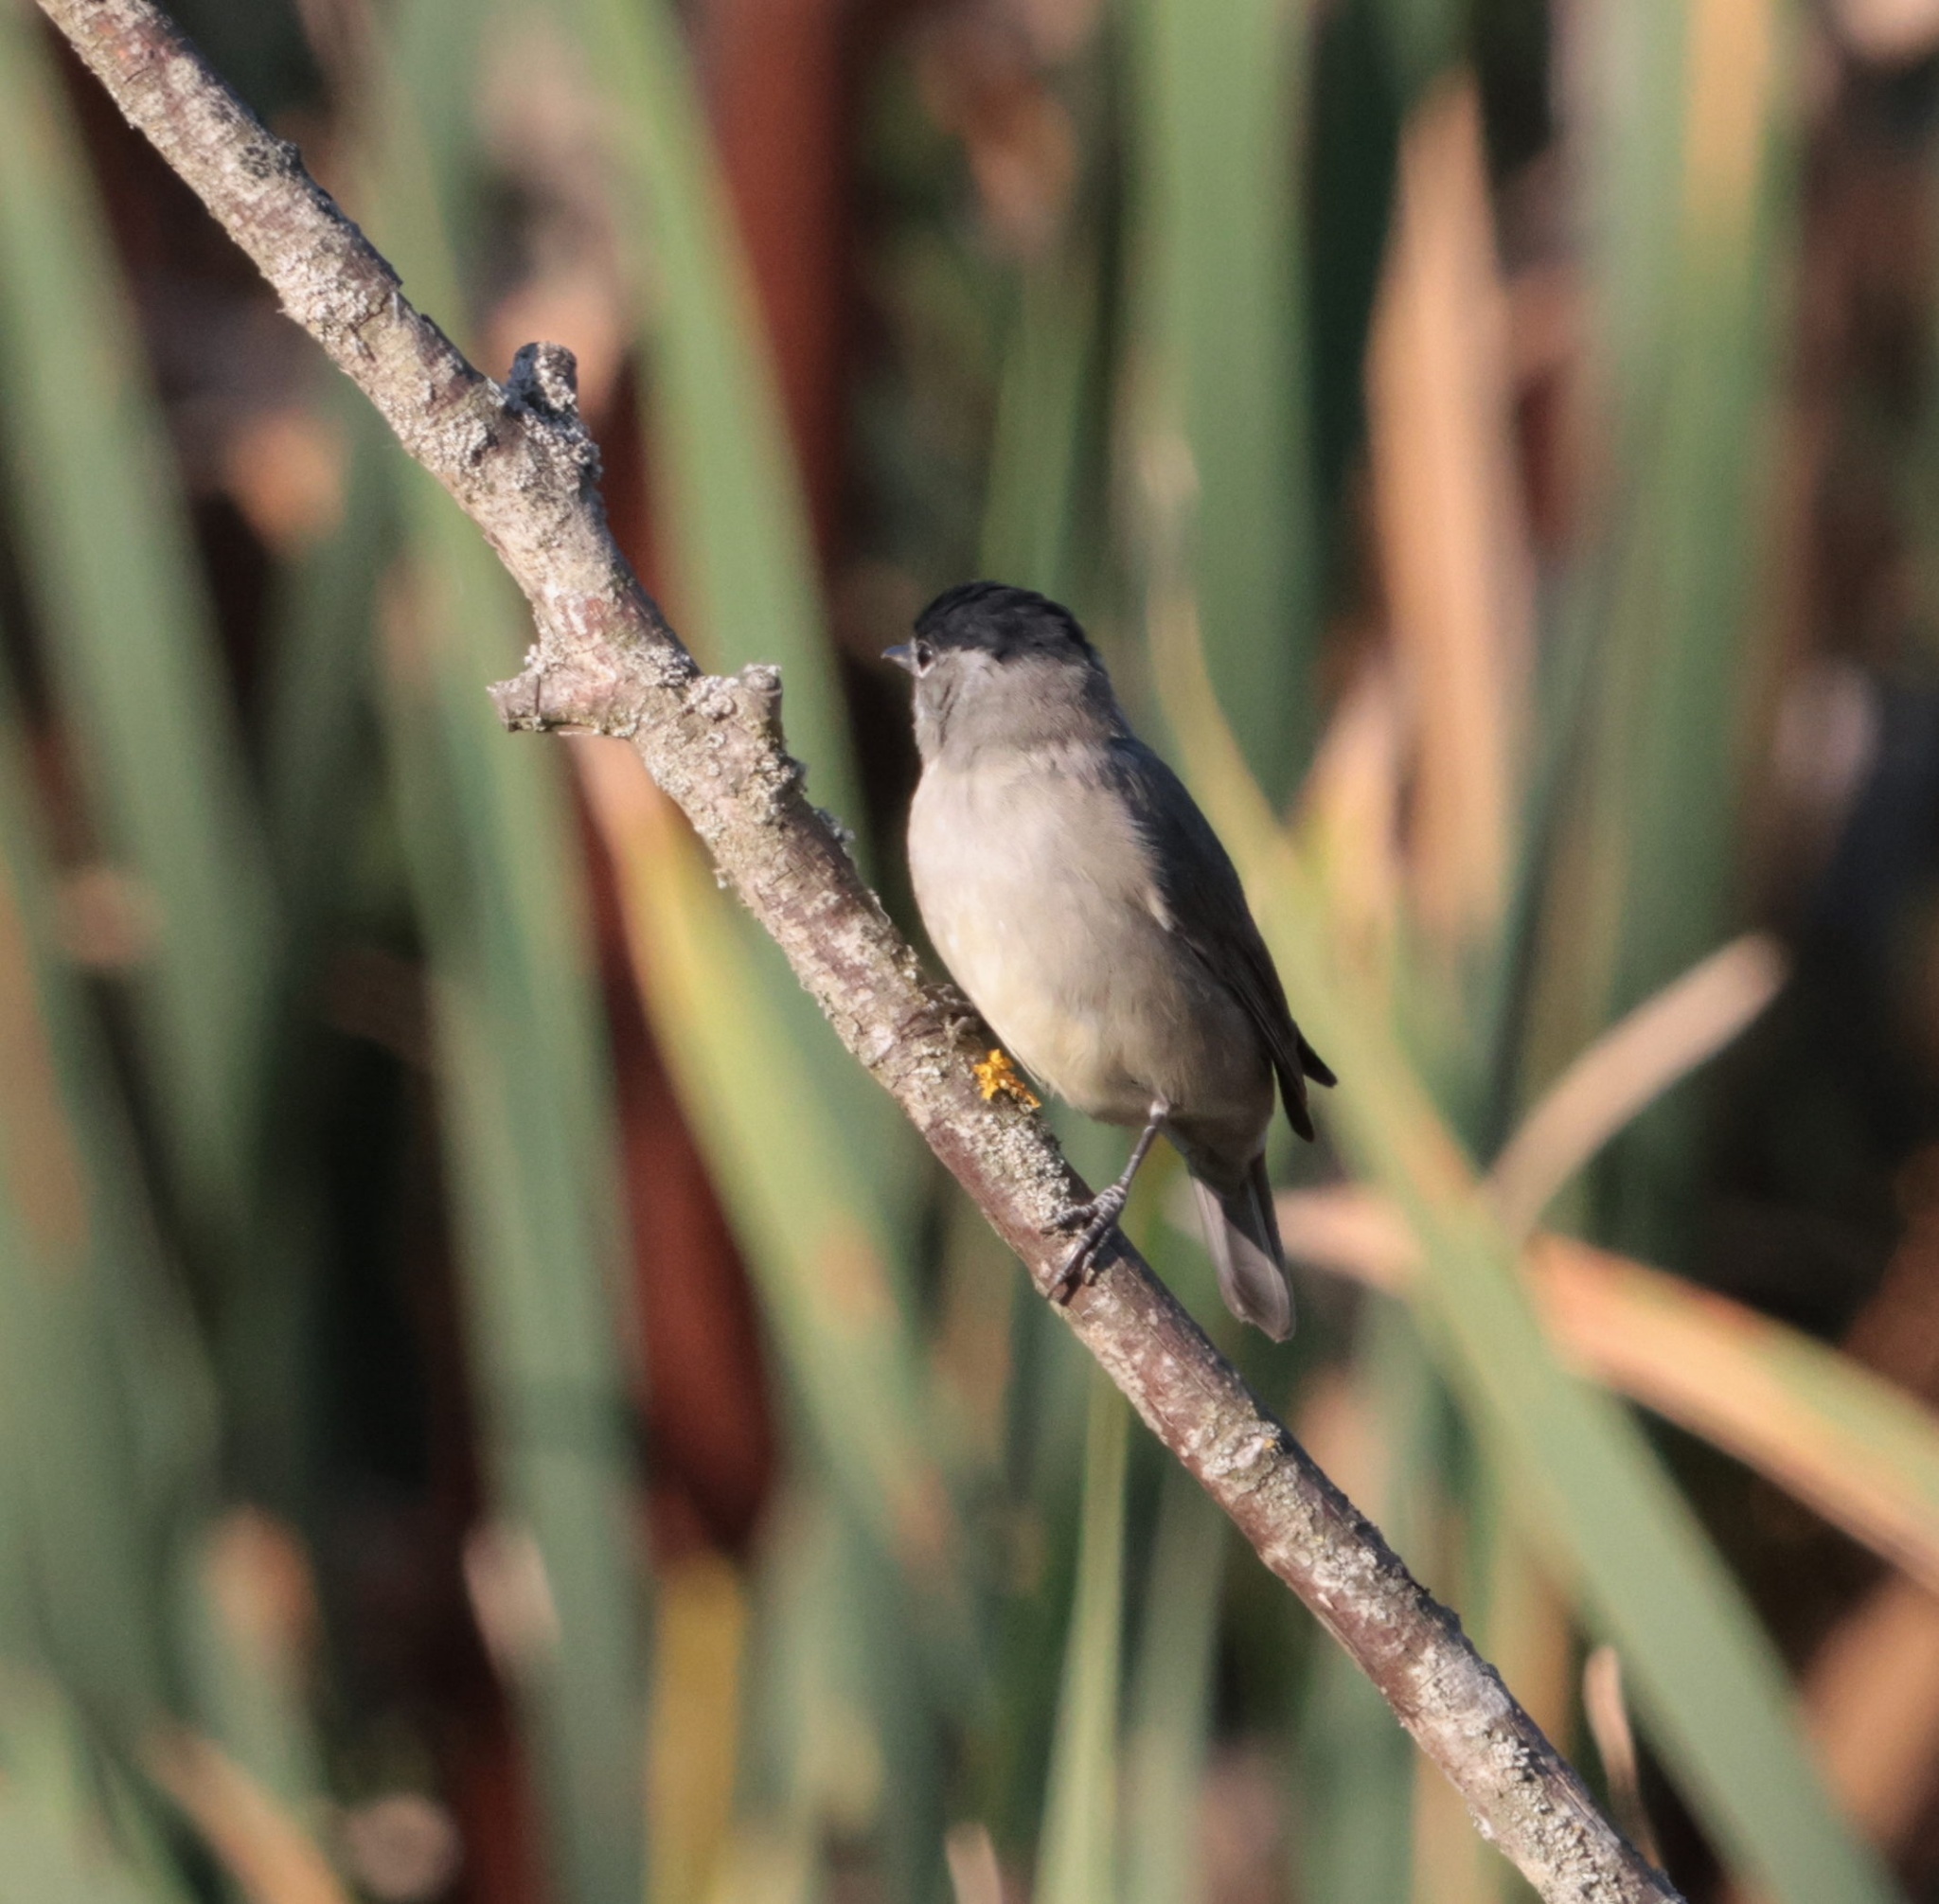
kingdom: Animalia
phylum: Chordata
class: Aves
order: Passeriformes
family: Sylviidae
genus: Sylvia
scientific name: Sylvia atricapilla
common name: Eurasian blackcap
